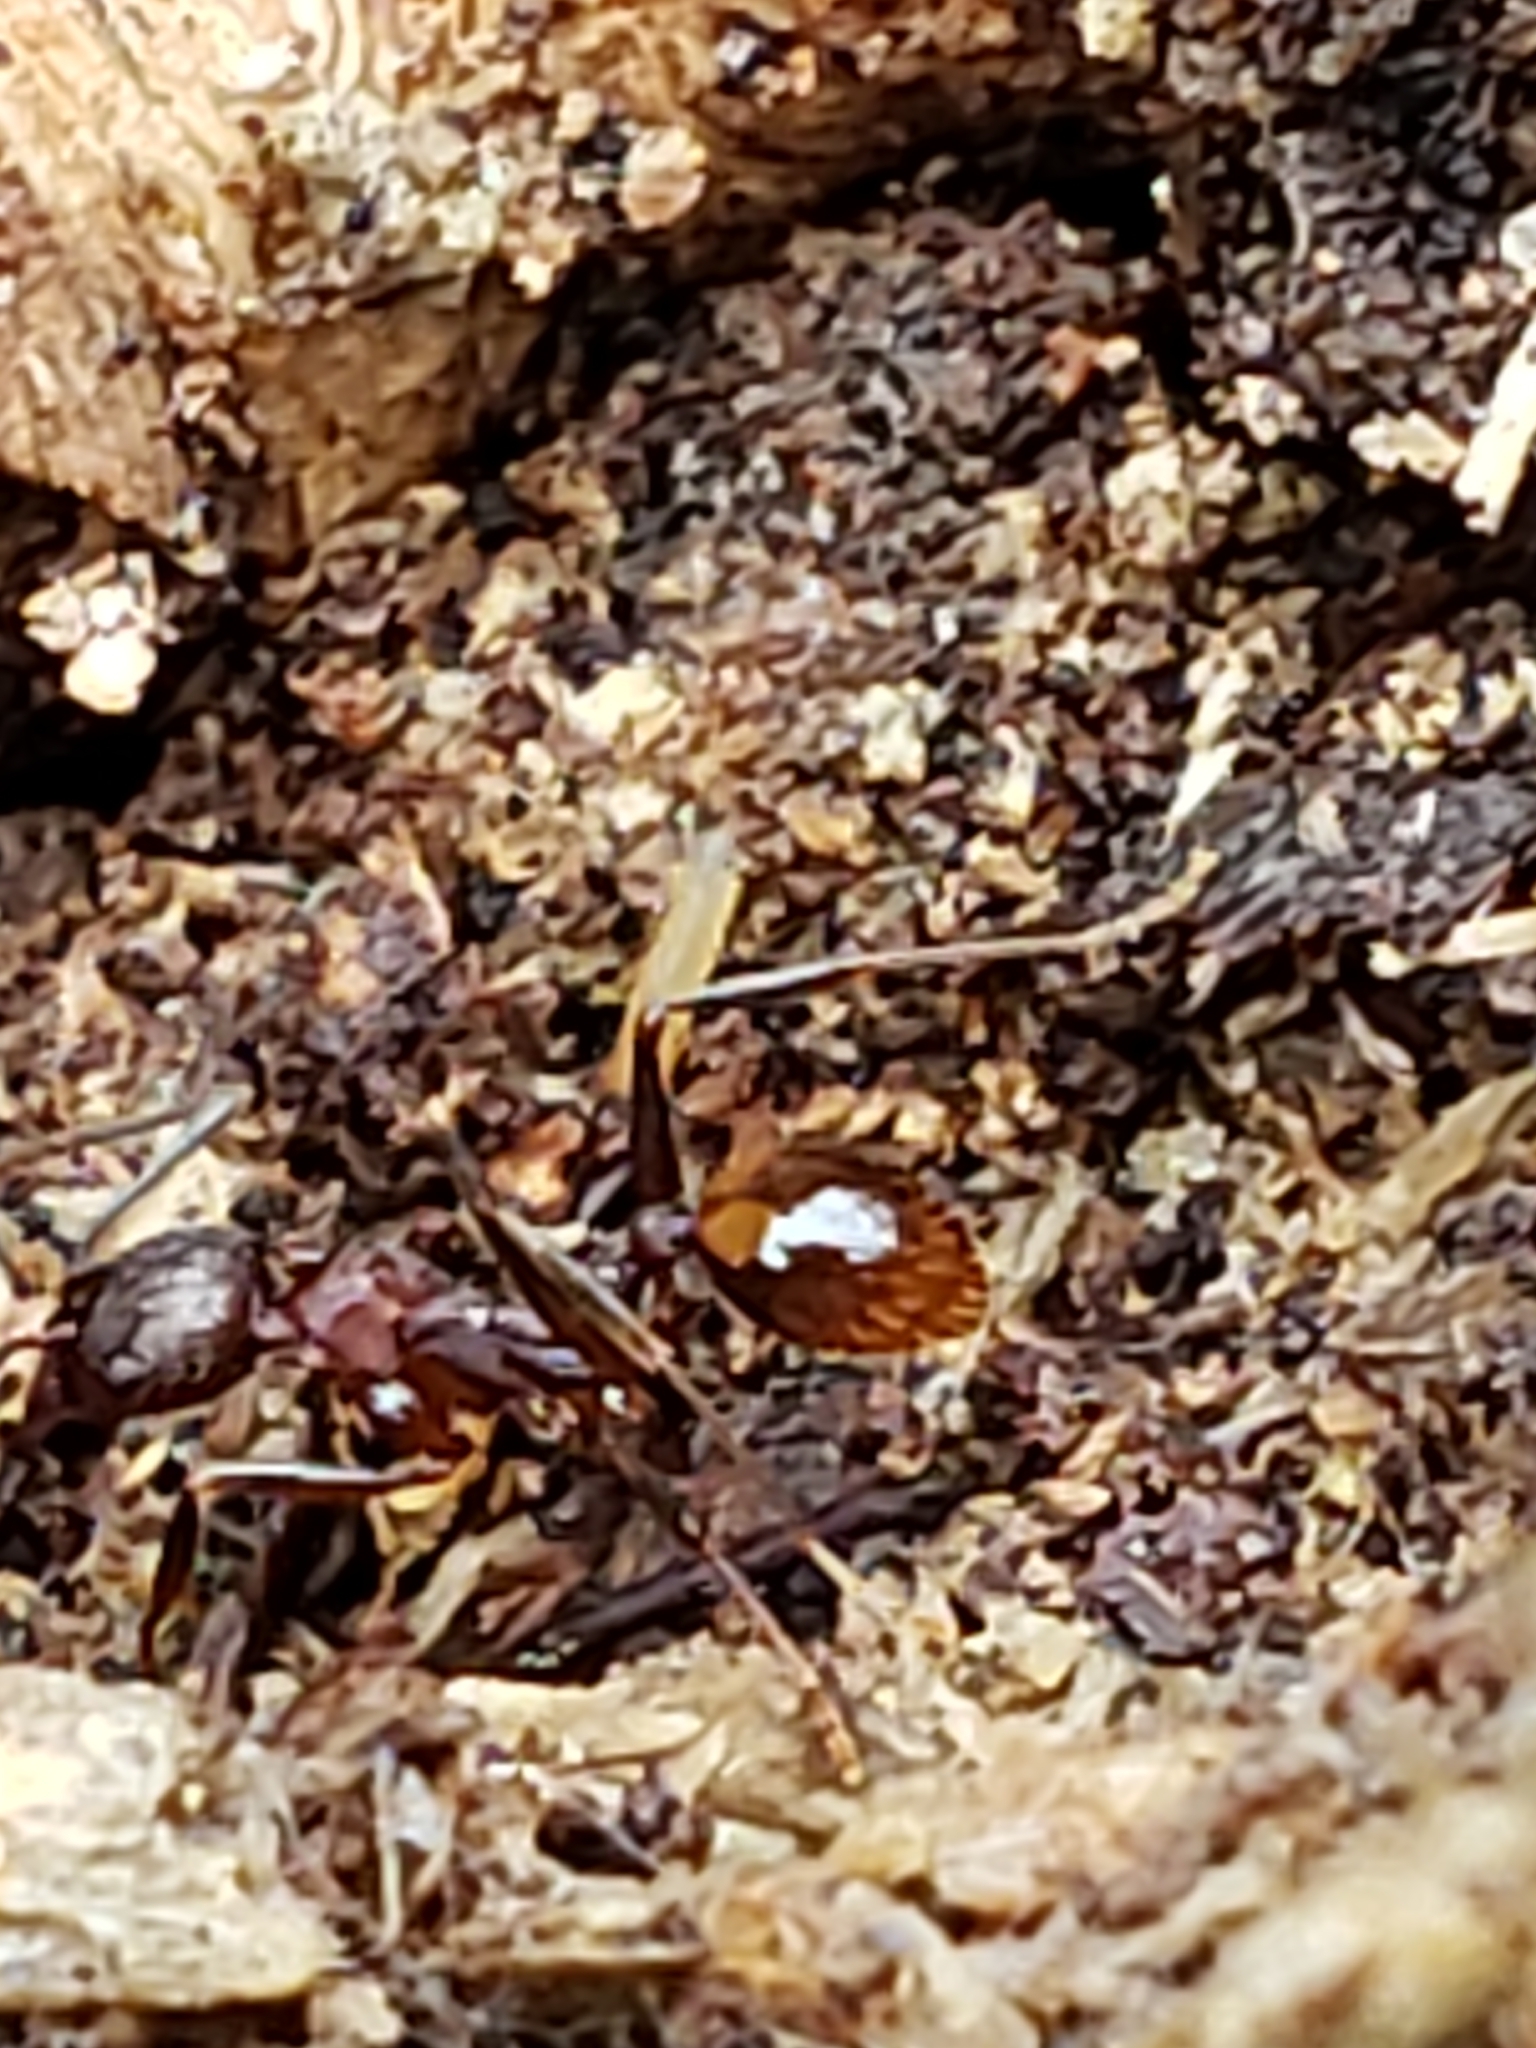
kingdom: Animalia
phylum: Arthropoda
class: Insecta
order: Hymenoptera
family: Formicidae
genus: Aphaenogaster
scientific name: Aphaenogaster fulva
